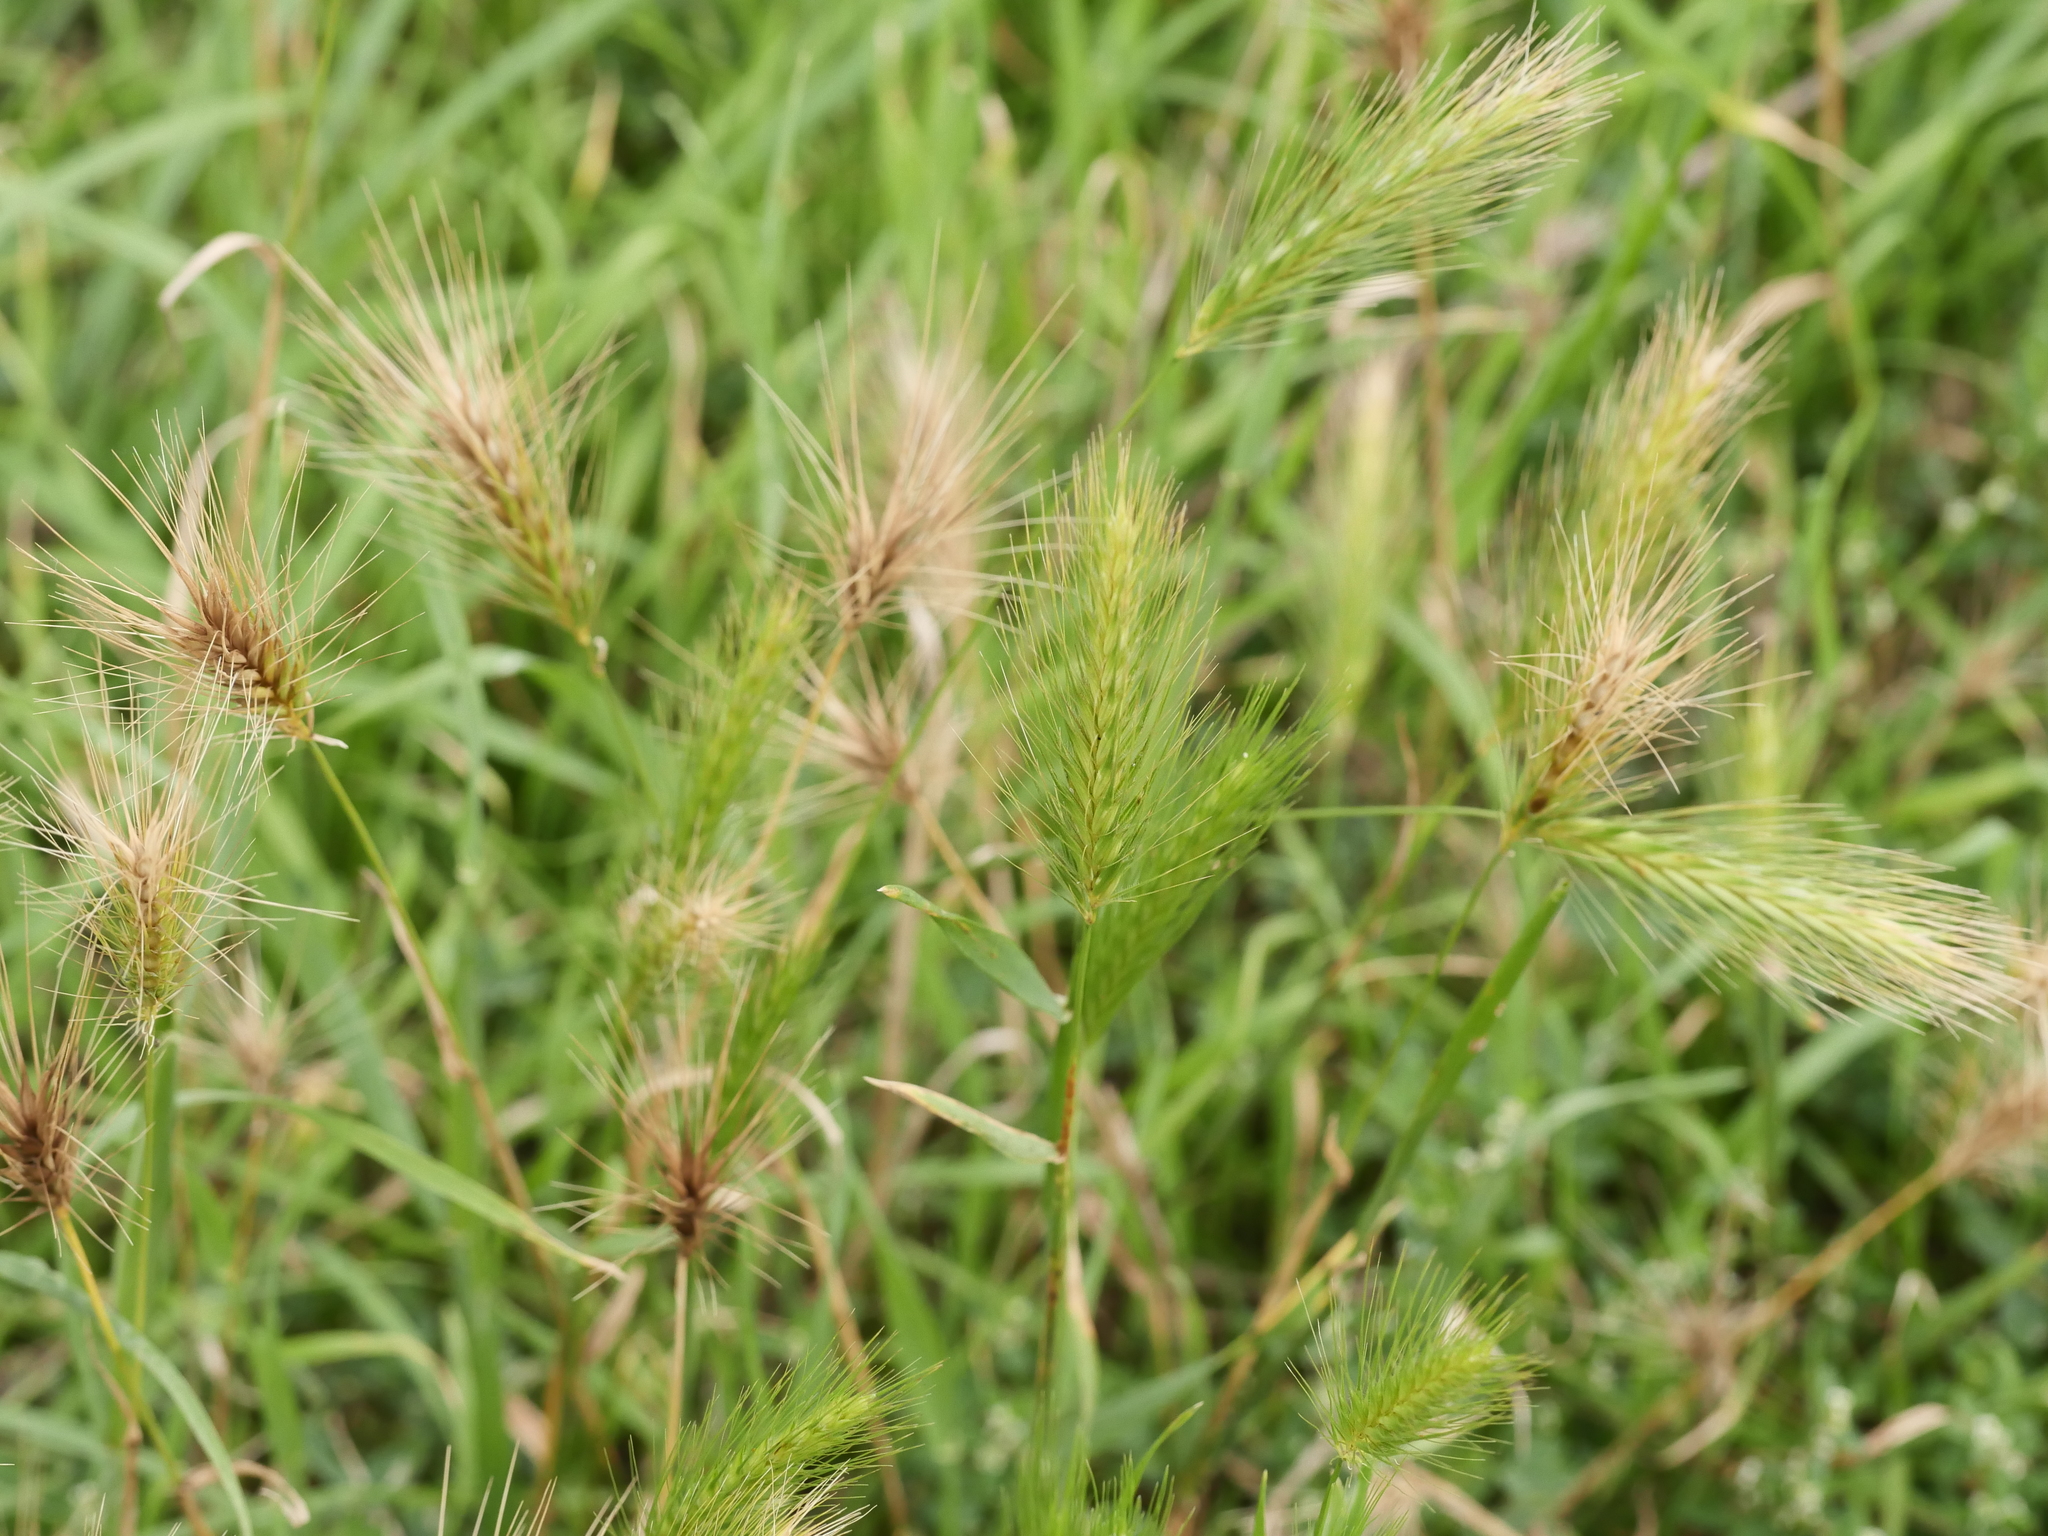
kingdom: Plantae
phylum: Tracheophyta
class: Liliopsida
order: Poales
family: Poaceae
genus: Hordeum
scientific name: Hordeum murinum
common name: Wall barley
